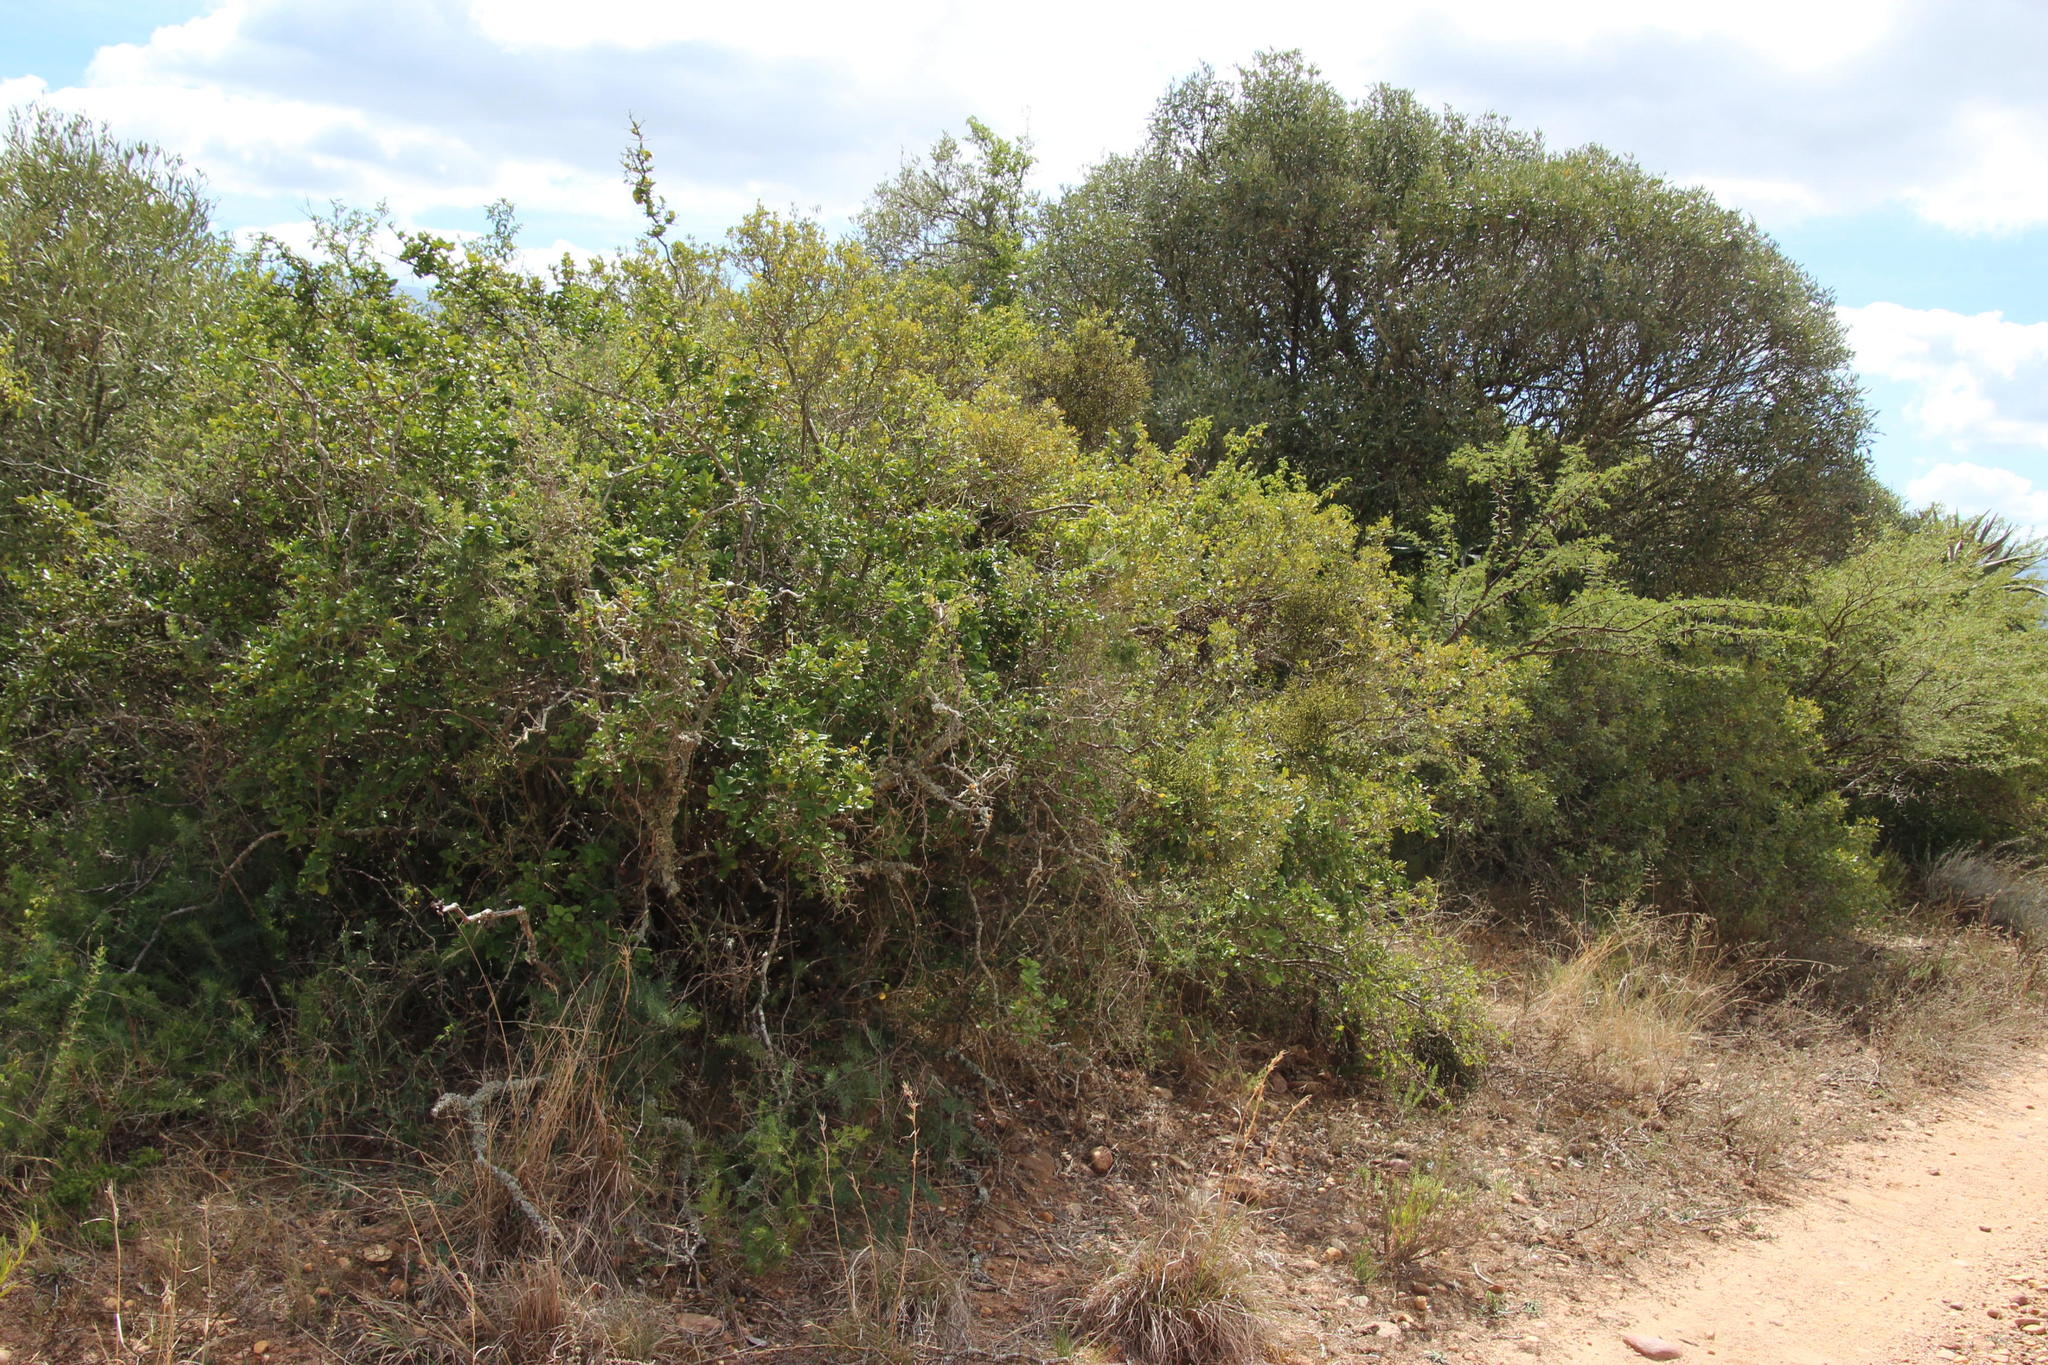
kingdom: Plantae
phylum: Tracheophyta
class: Magnoliopsida
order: Gentianales
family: Apocynaceae
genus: Carissa
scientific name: Carissa bispinosa
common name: Forest num-num
